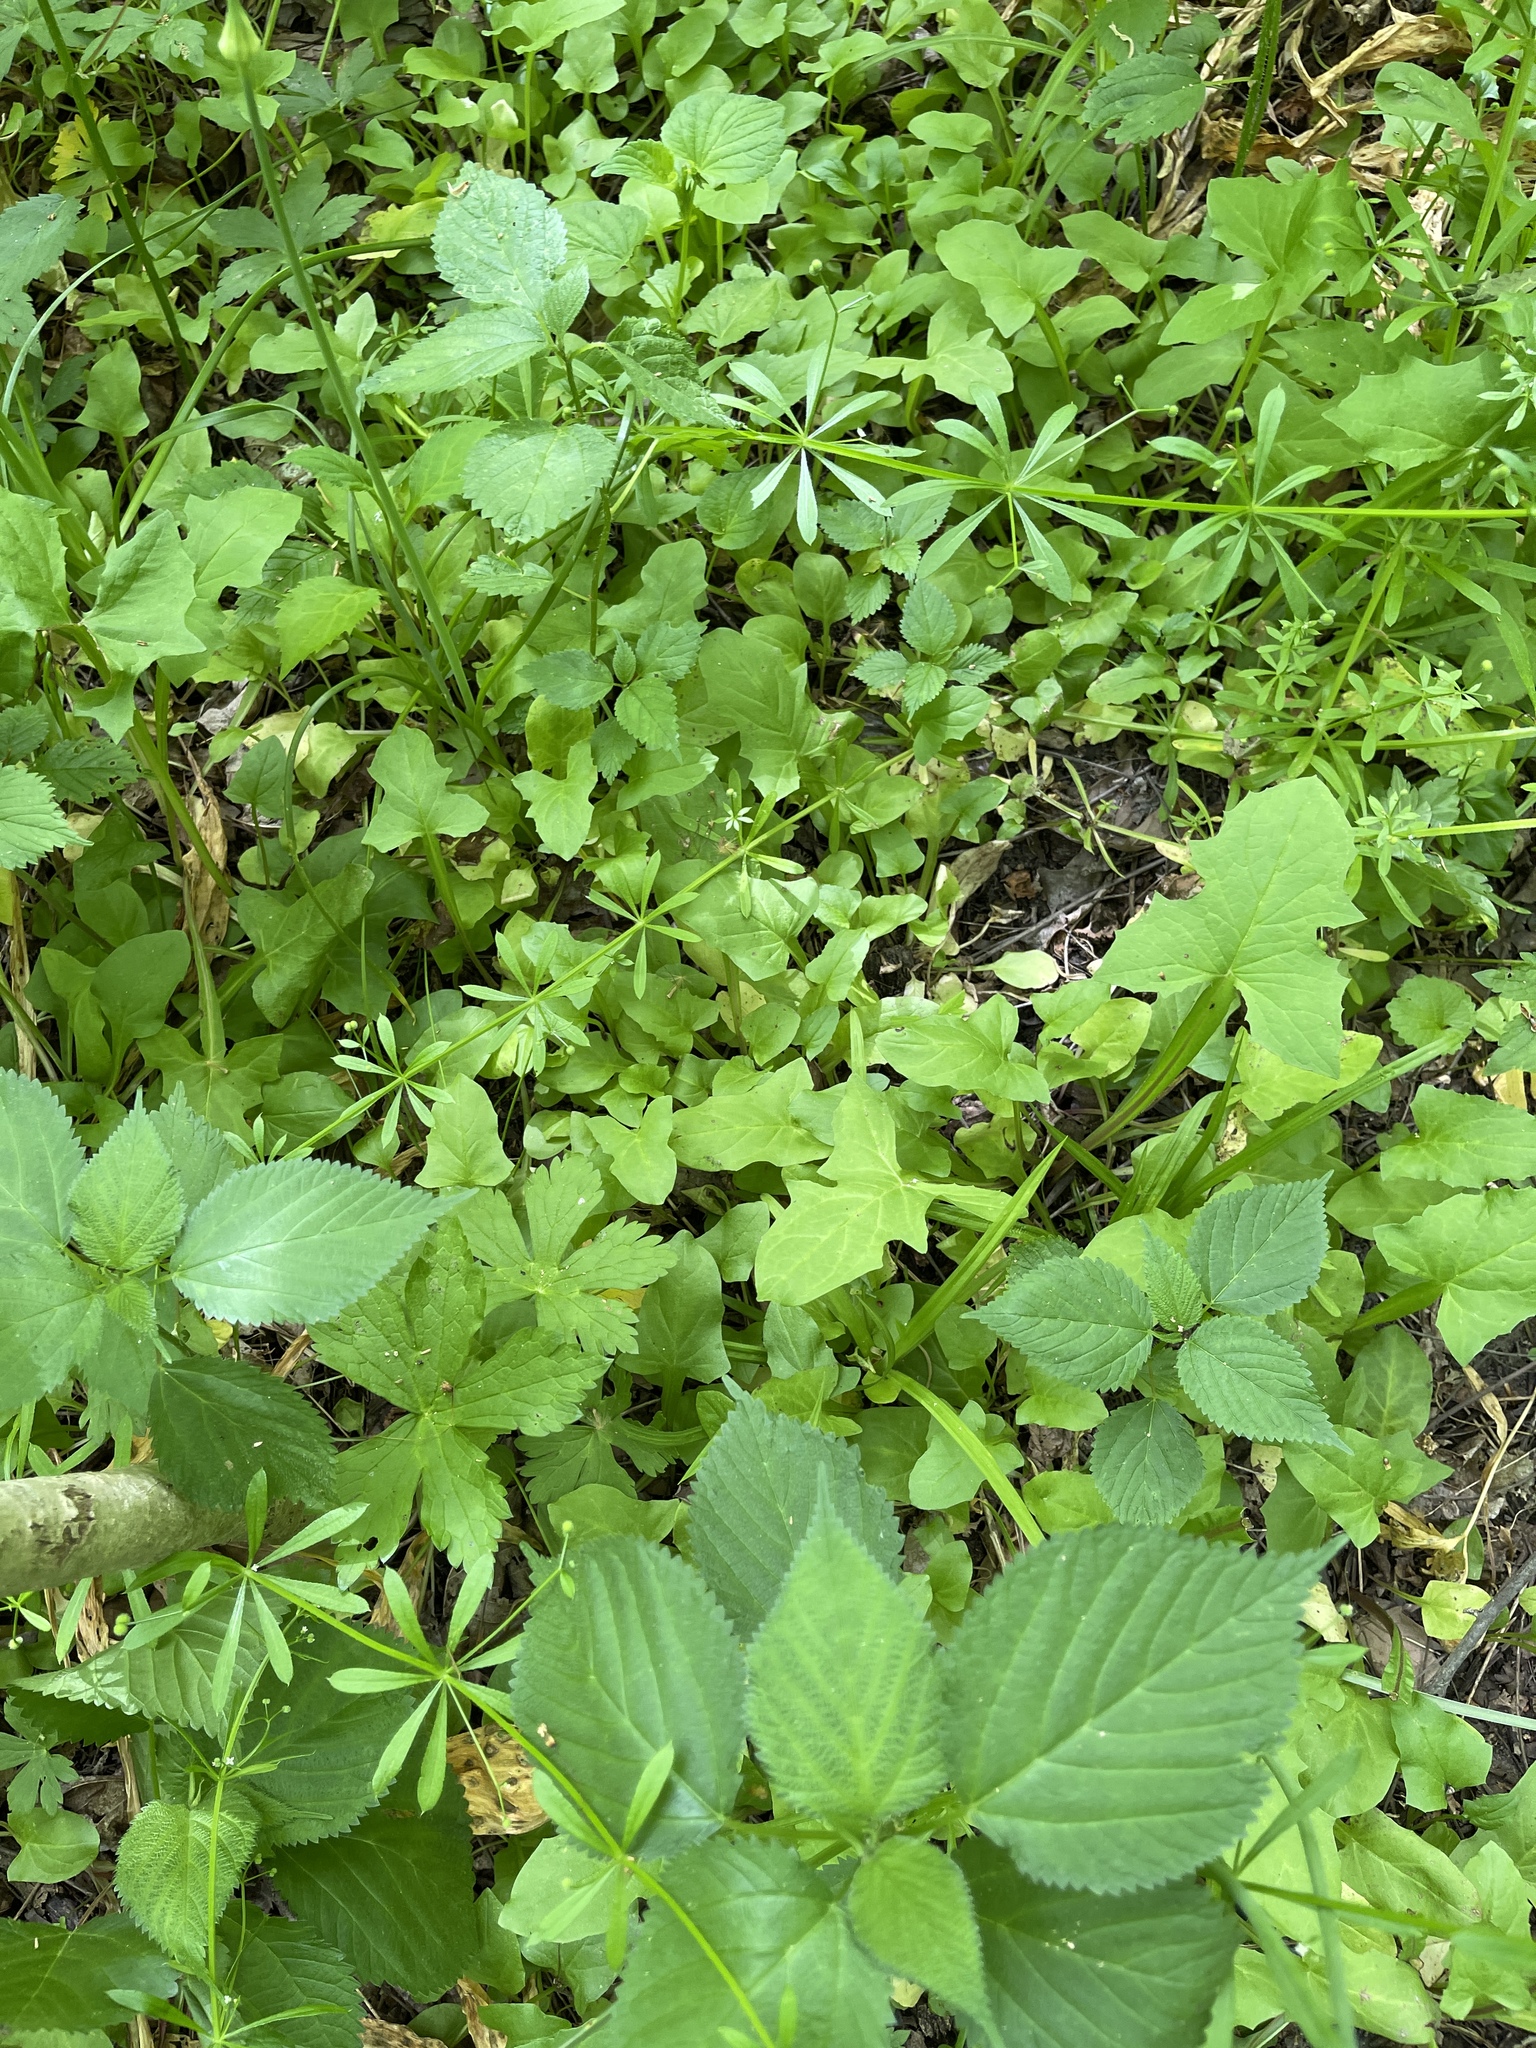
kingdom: Plantae
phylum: Tracheophyta
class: Magnoliopsida
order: Asterales
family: Asteraceae
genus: Nabalus
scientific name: Nabalus crepidineus
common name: Nodding rattlesnakeroot
